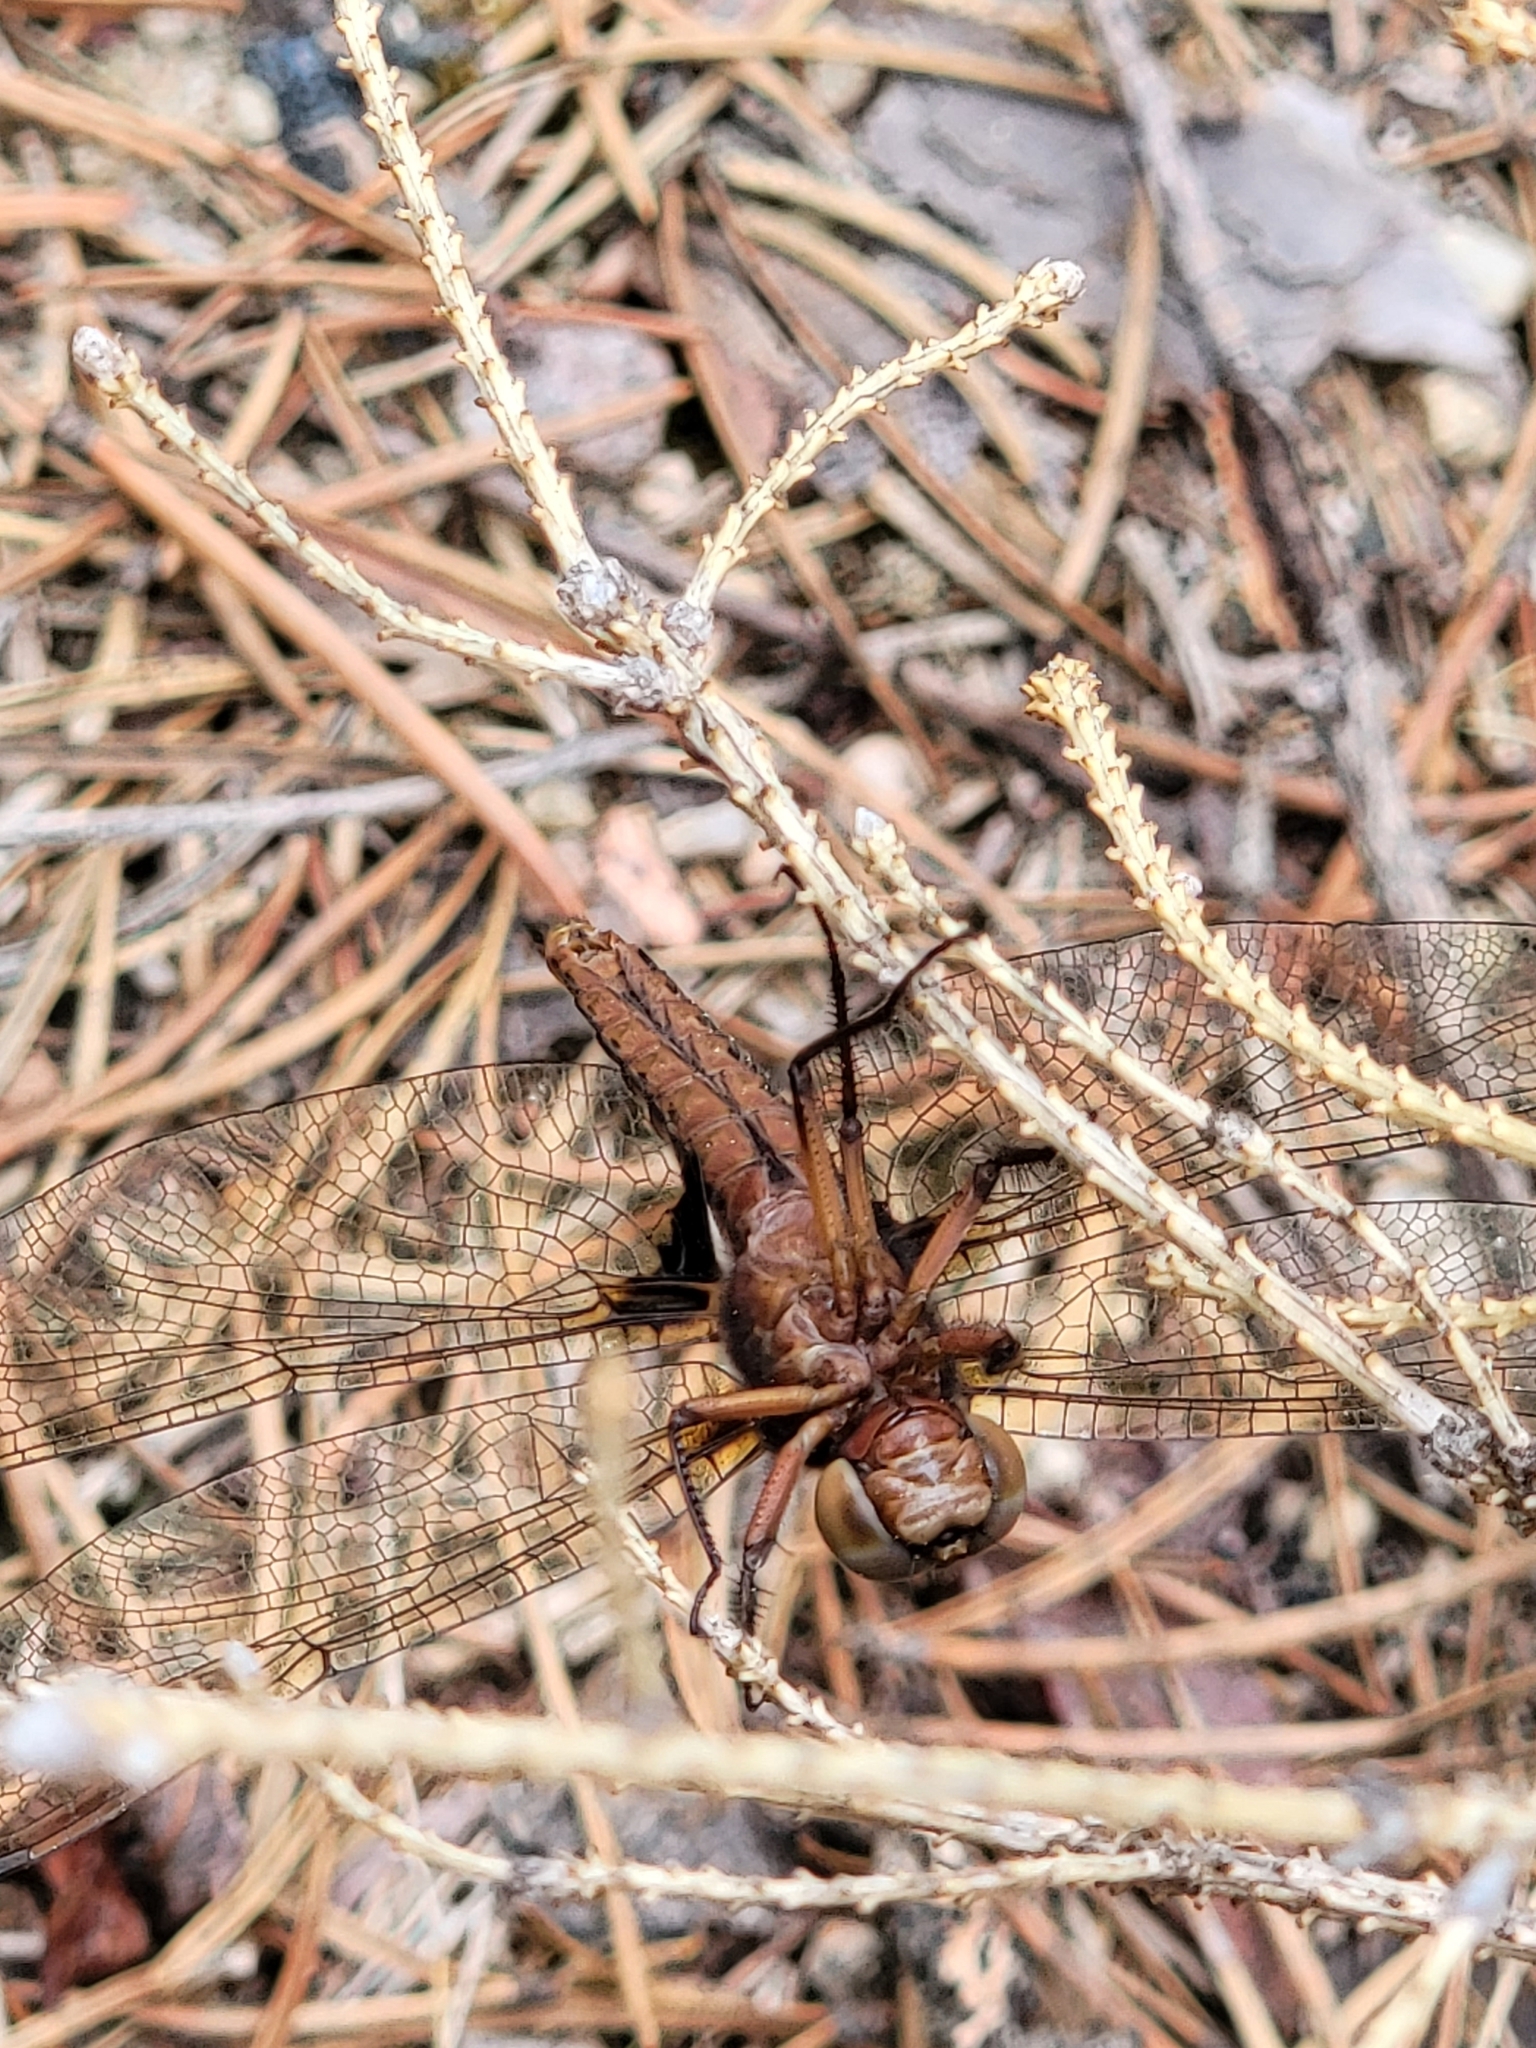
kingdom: Animalia
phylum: Arthropoda
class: Insecta
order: Odonata
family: Libellulidae
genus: Ladona
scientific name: Ladona julia
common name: Chalk-fronted corporal
